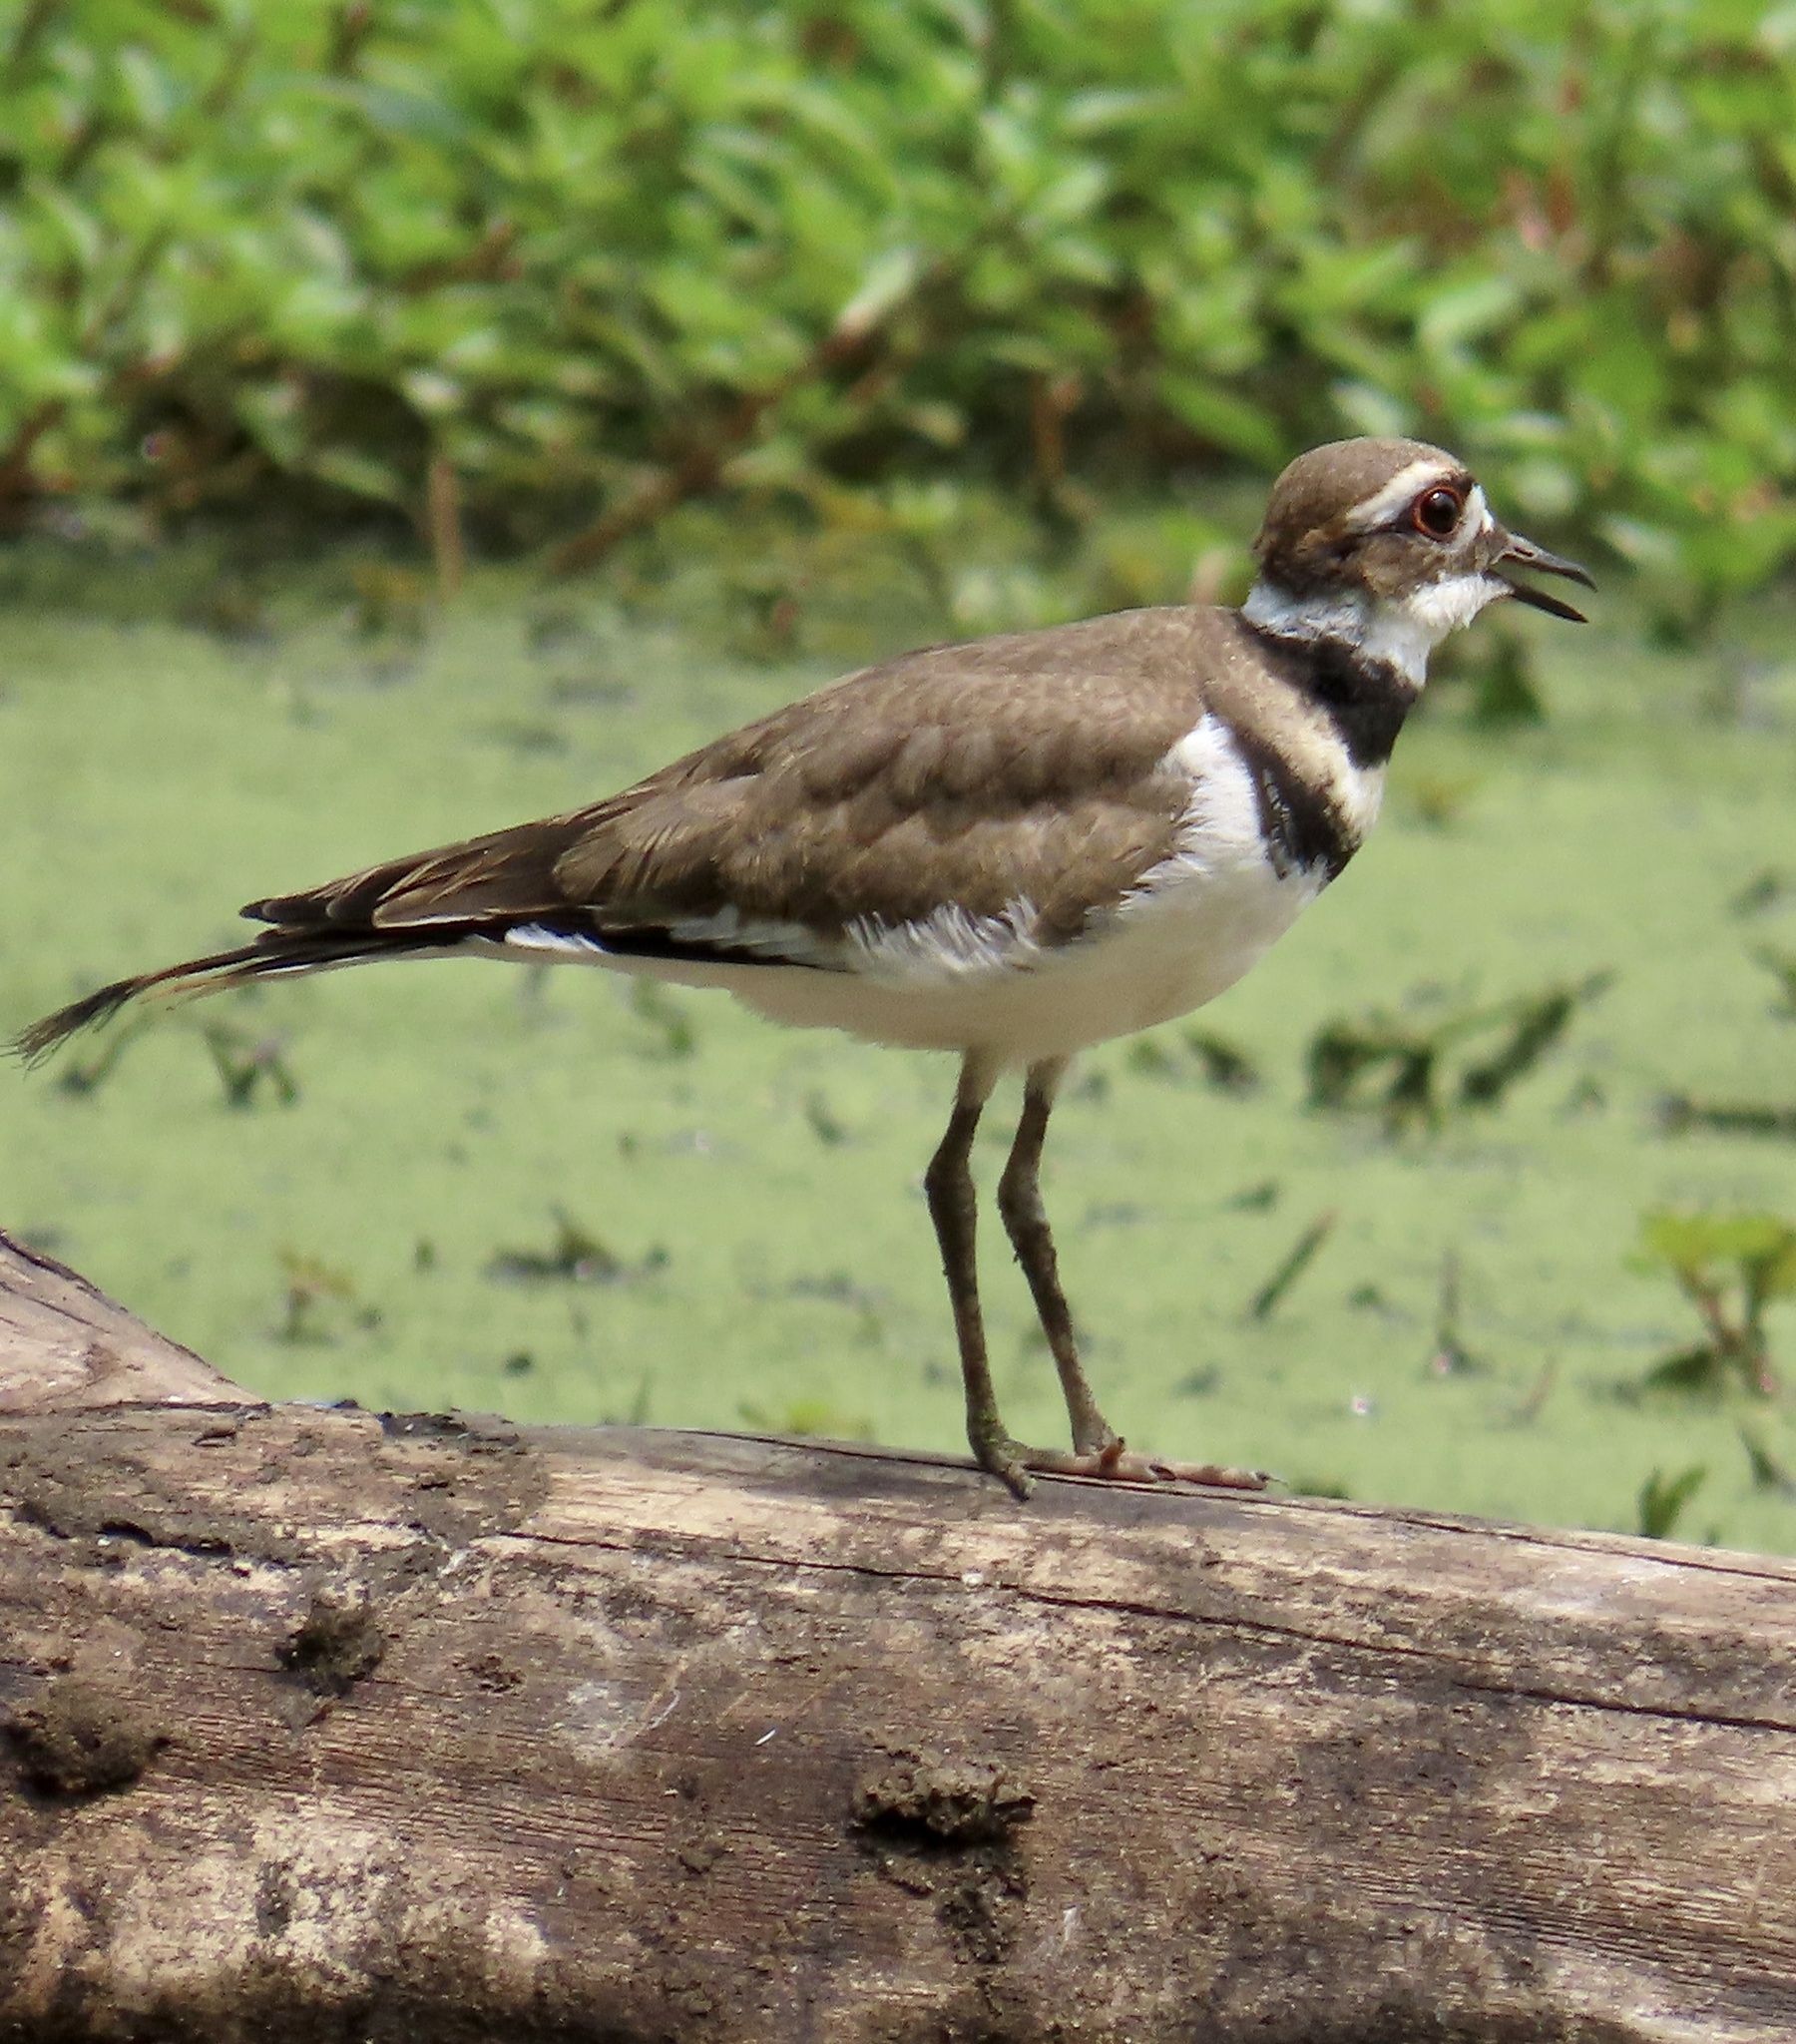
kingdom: Animalia
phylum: Chordata
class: Aves
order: Charadriiformes
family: Charadriidae
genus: Charadrius
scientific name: Charadrius vociferus
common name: Killdeer
